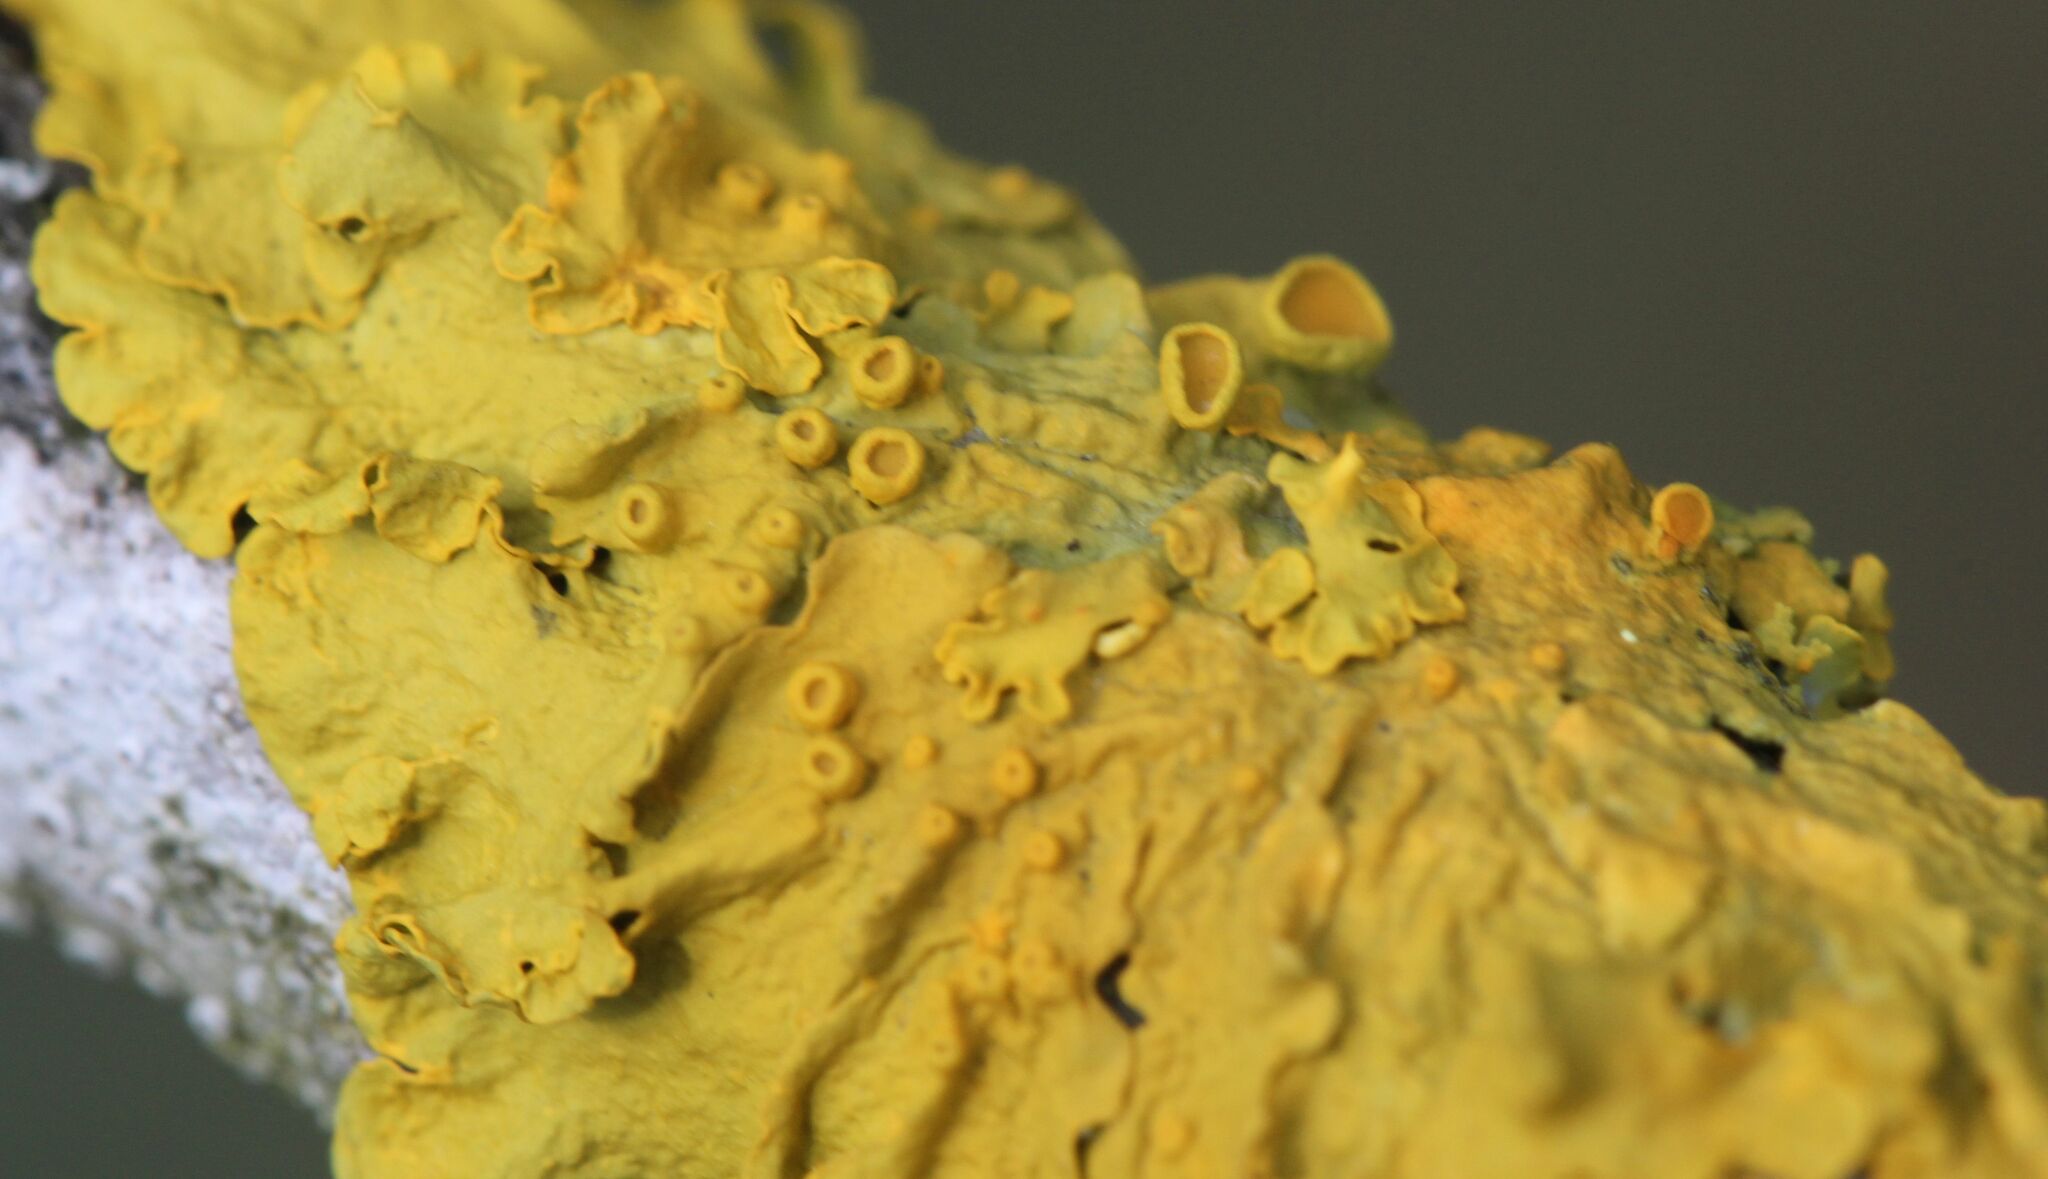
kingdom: Fungi
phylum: Ascomycota
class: Lecanoromycetes
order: Teloschistales
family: Teloschistaceae
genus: Xanthoria
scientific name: Xanthoria parietina
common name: Common orange lichen
